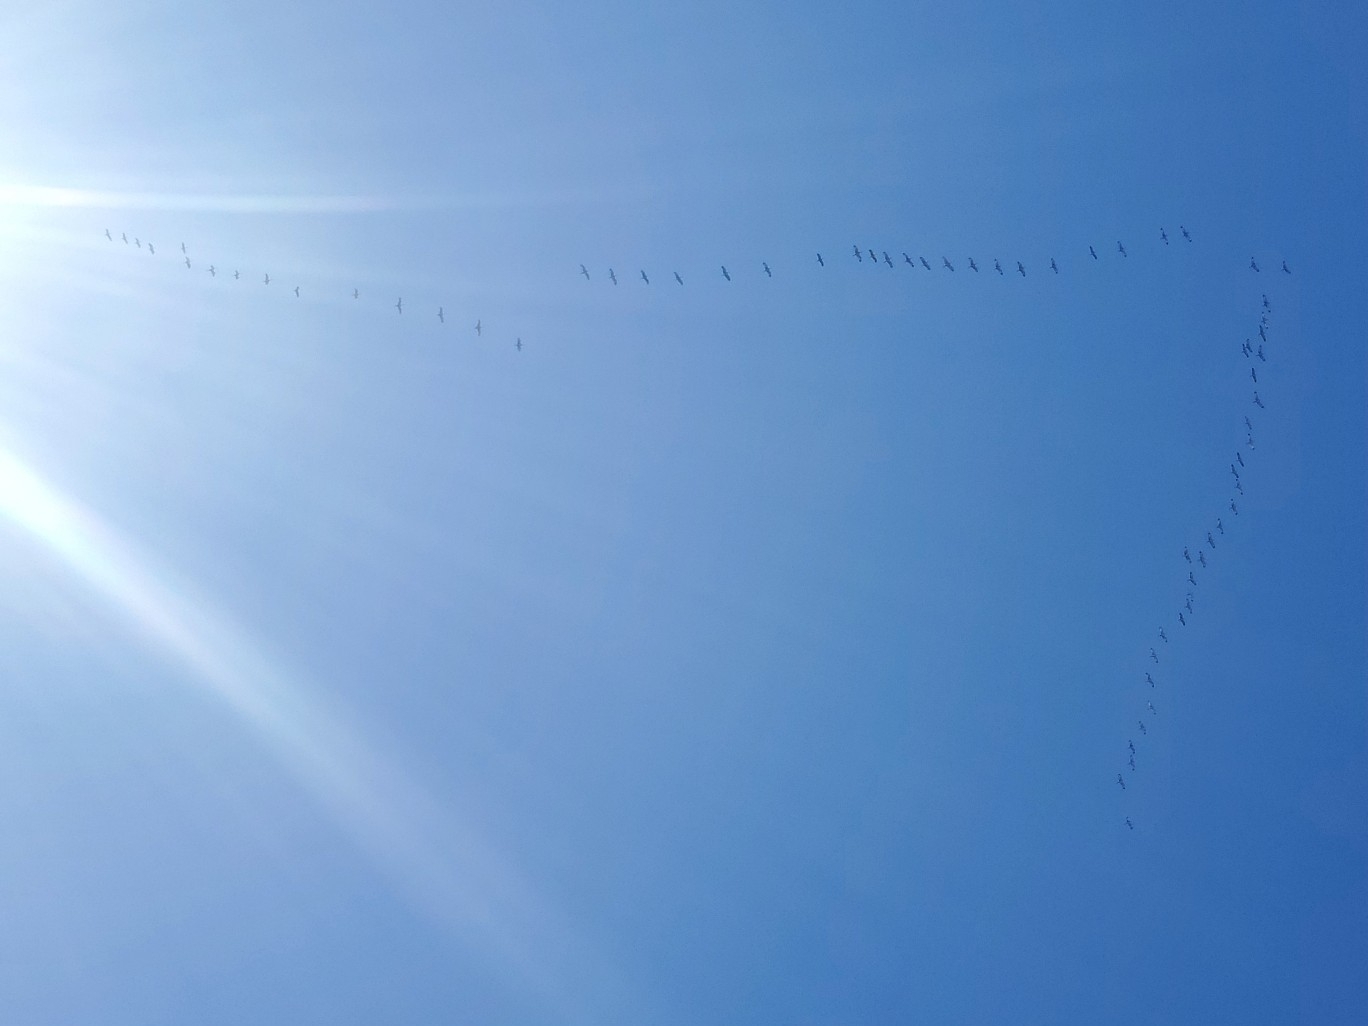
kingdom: Animalia
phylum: Chordata
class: Aves
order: Gruiformes
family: Gruidae
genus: Grus
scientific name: Grus canadensis
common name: Sandhill crane
